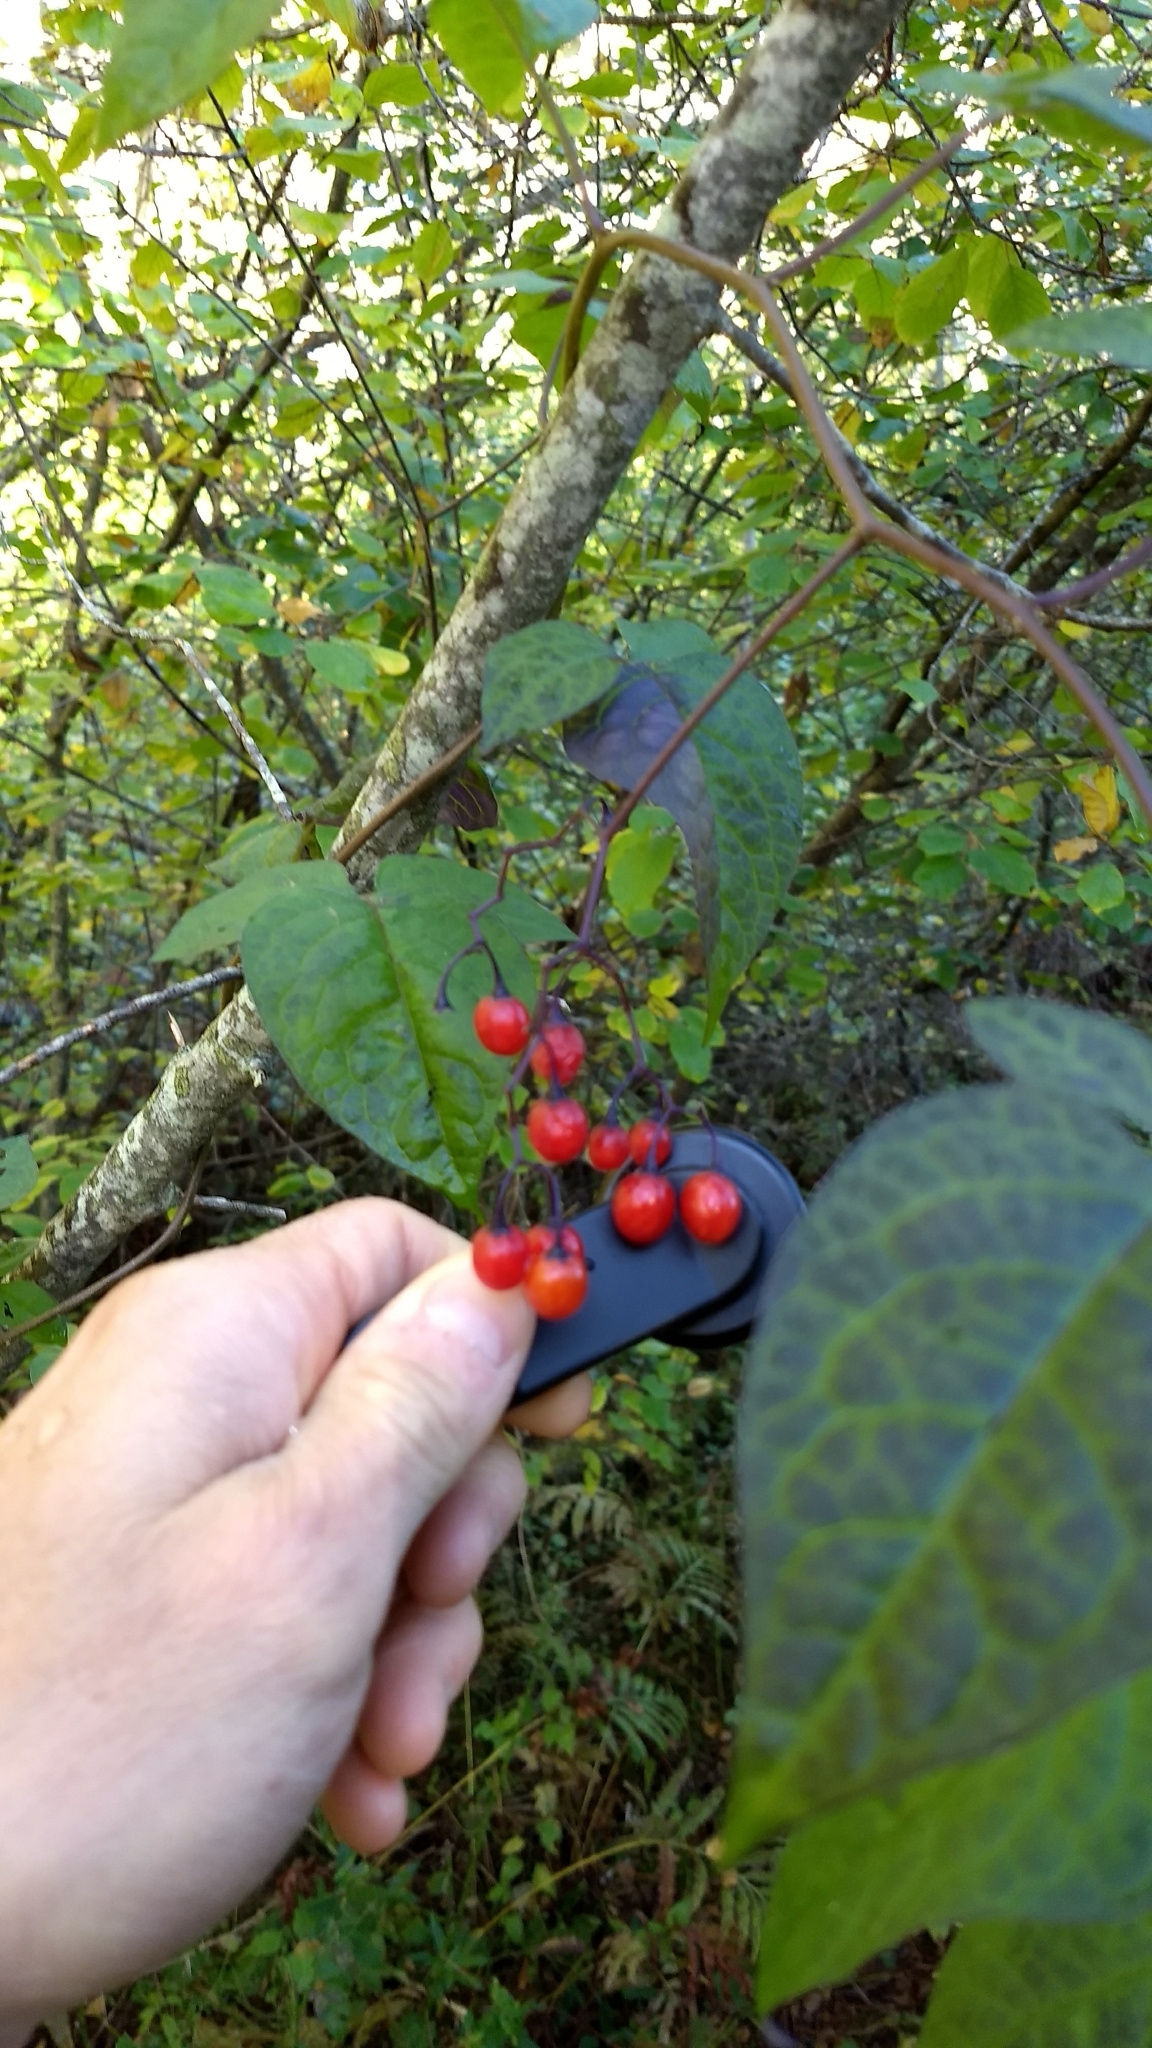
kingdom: Plantae
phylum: Tracheophyta
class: Magnoliopsida
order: Solanales
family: Solanaceae
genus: Solanum
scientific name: Solanum dulcamara
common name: Climbing nightshade
